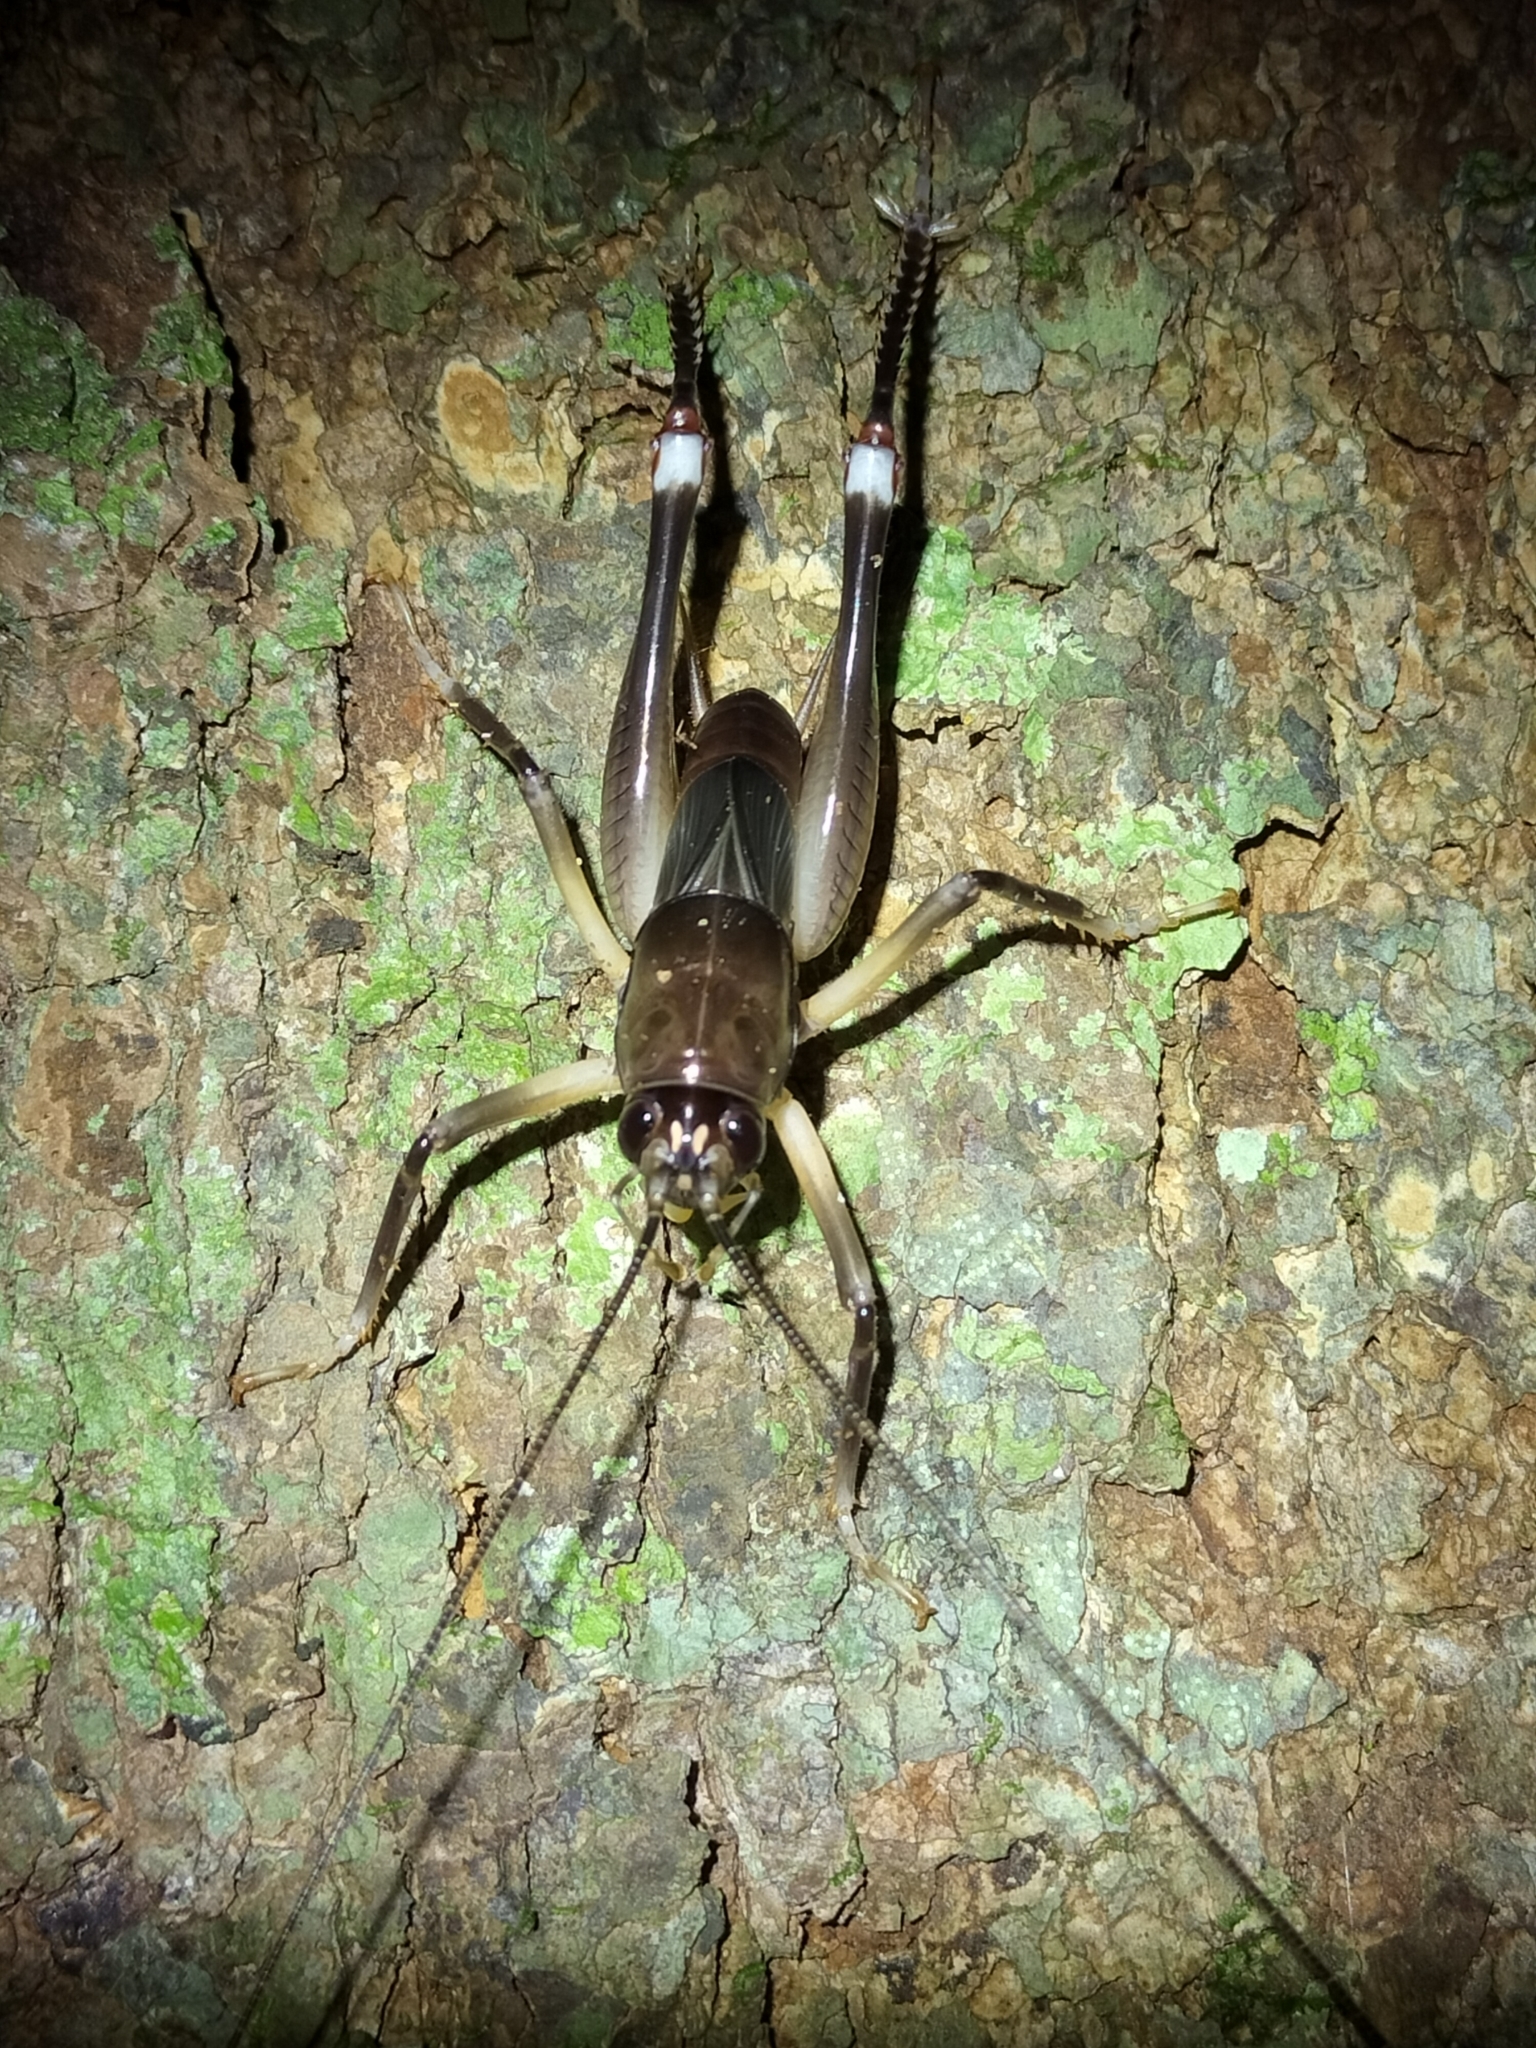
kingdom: Animalia
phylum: Arthropoda
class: Insecta
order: Orthoptera
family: Anostostomatidae
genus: Exogryllacris
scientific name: Exogryllacris ornata
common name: Broad-winged forest cricket
